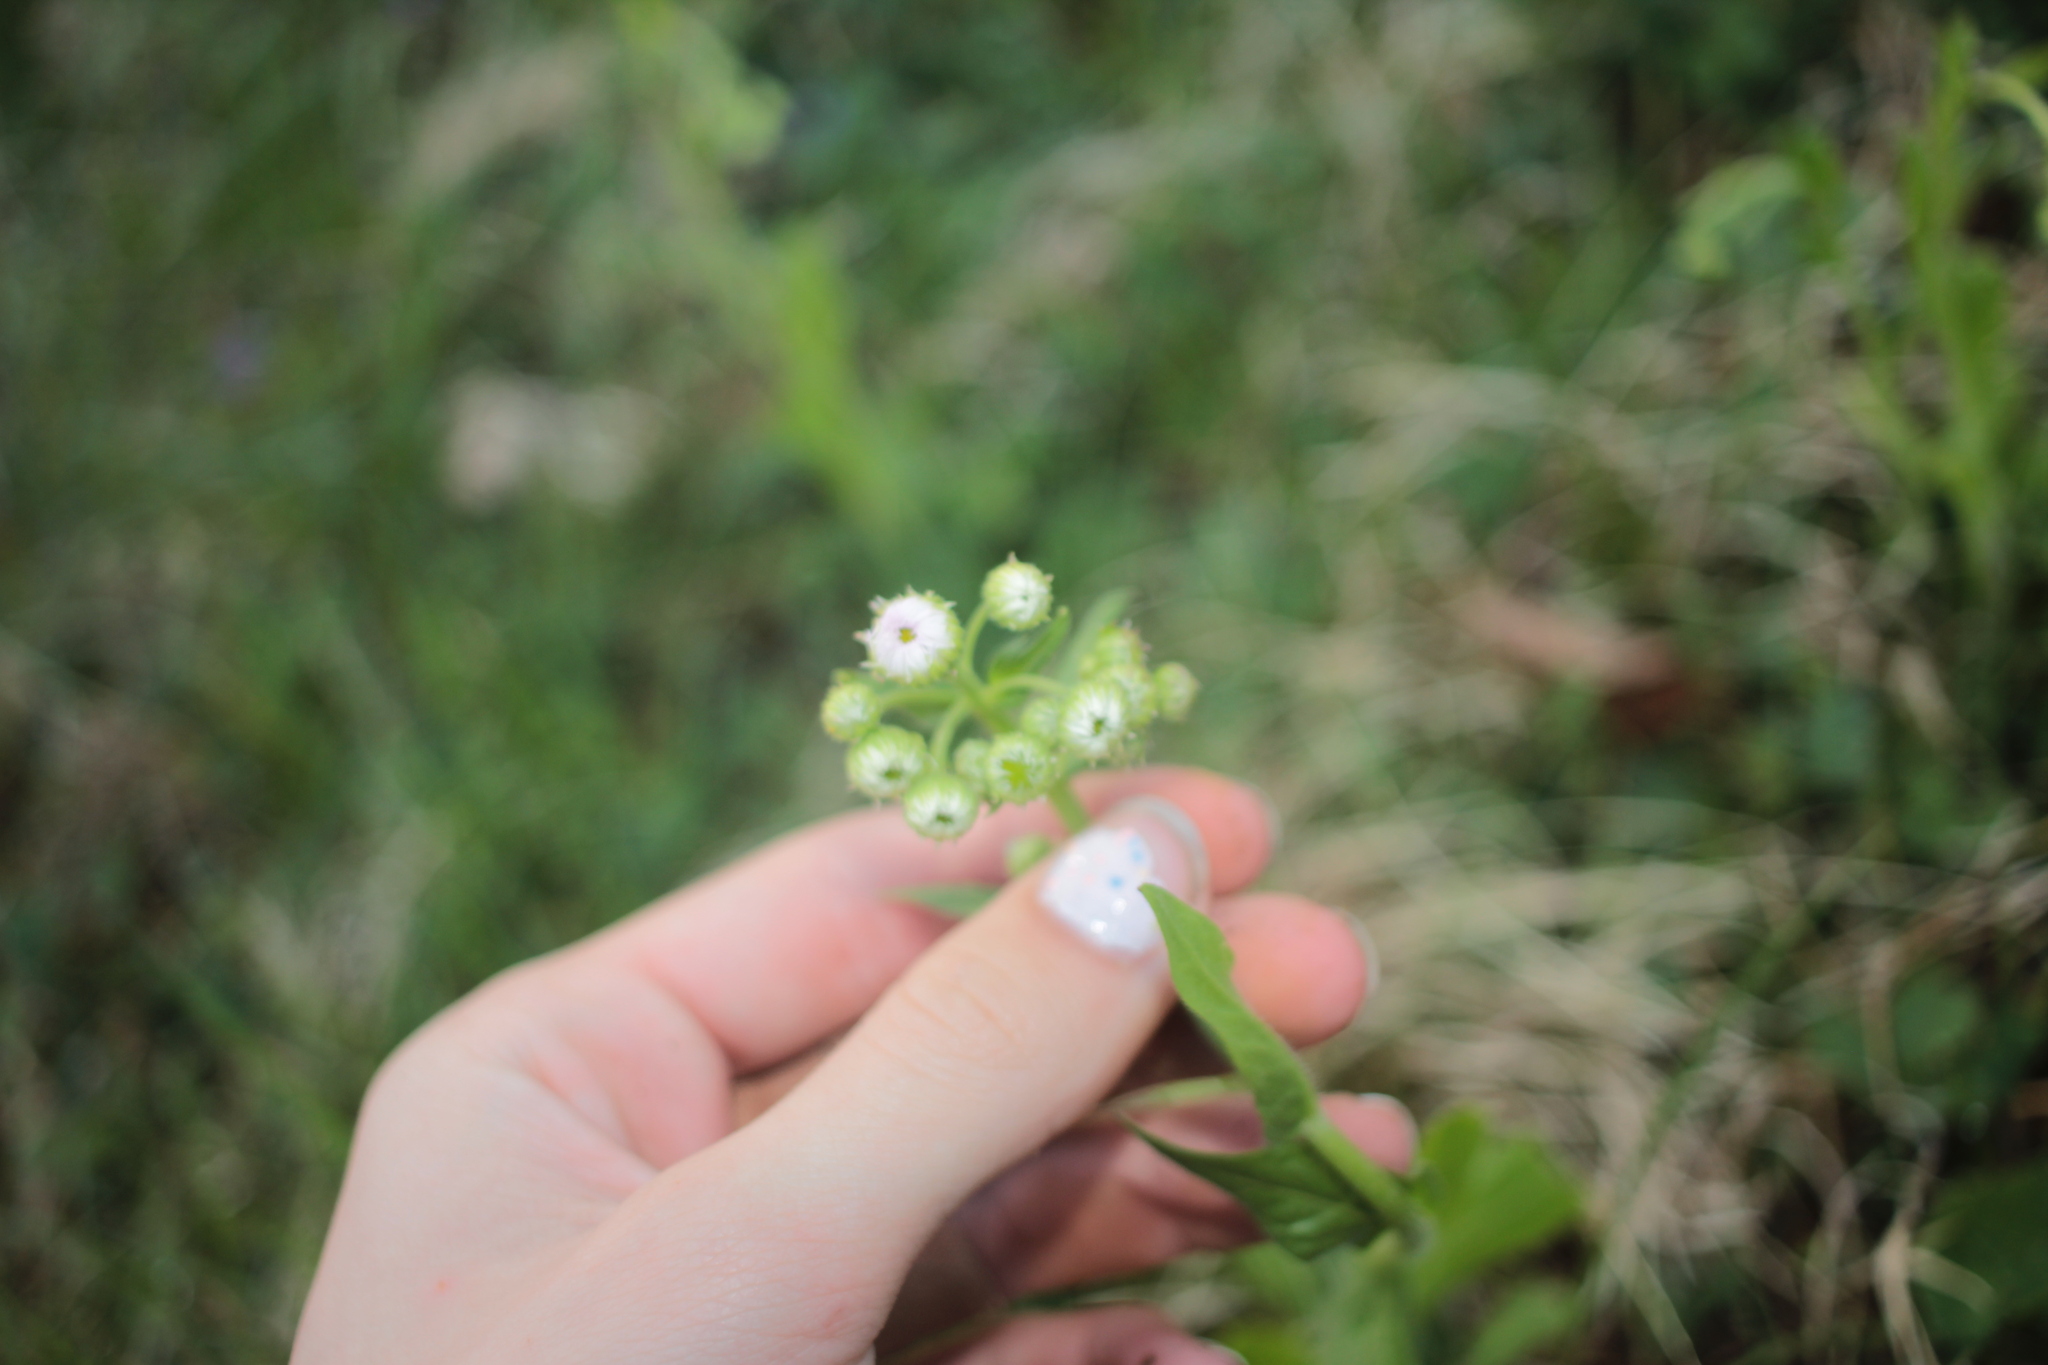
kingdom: Plantae
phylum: Tracheophyta
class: Magnoliopsida
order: Asterales
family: Asteraceae
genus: Erigeron
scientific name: Erigeron philadelphicus
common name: Robin's-plantain
